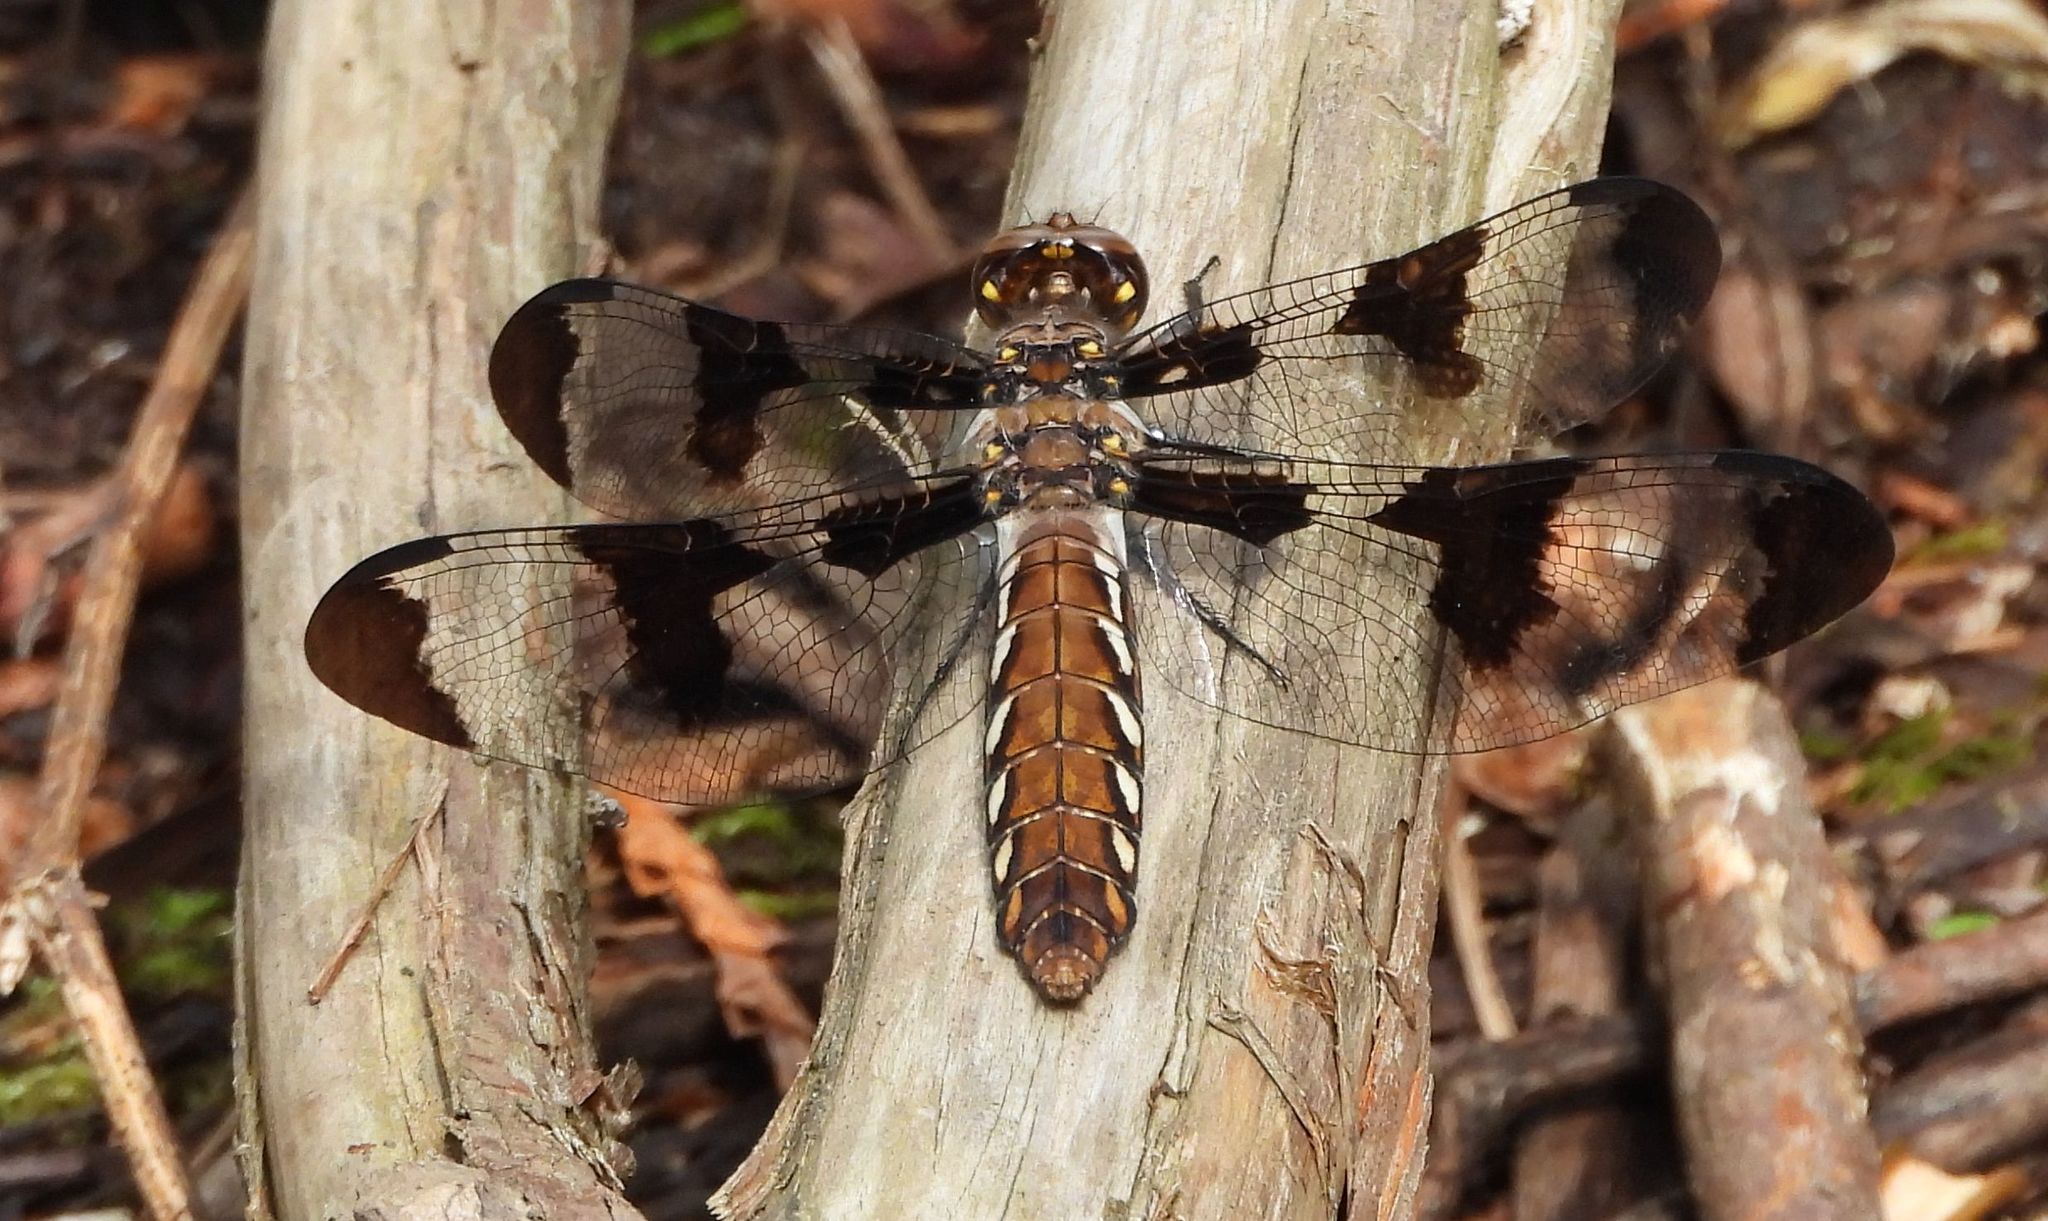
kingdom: Animalia
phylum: Arthropoda
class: Insecta
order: Odonata
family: Libellulidae
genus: Plathemis
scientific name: Plathemis lydia
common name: Common whitetail
